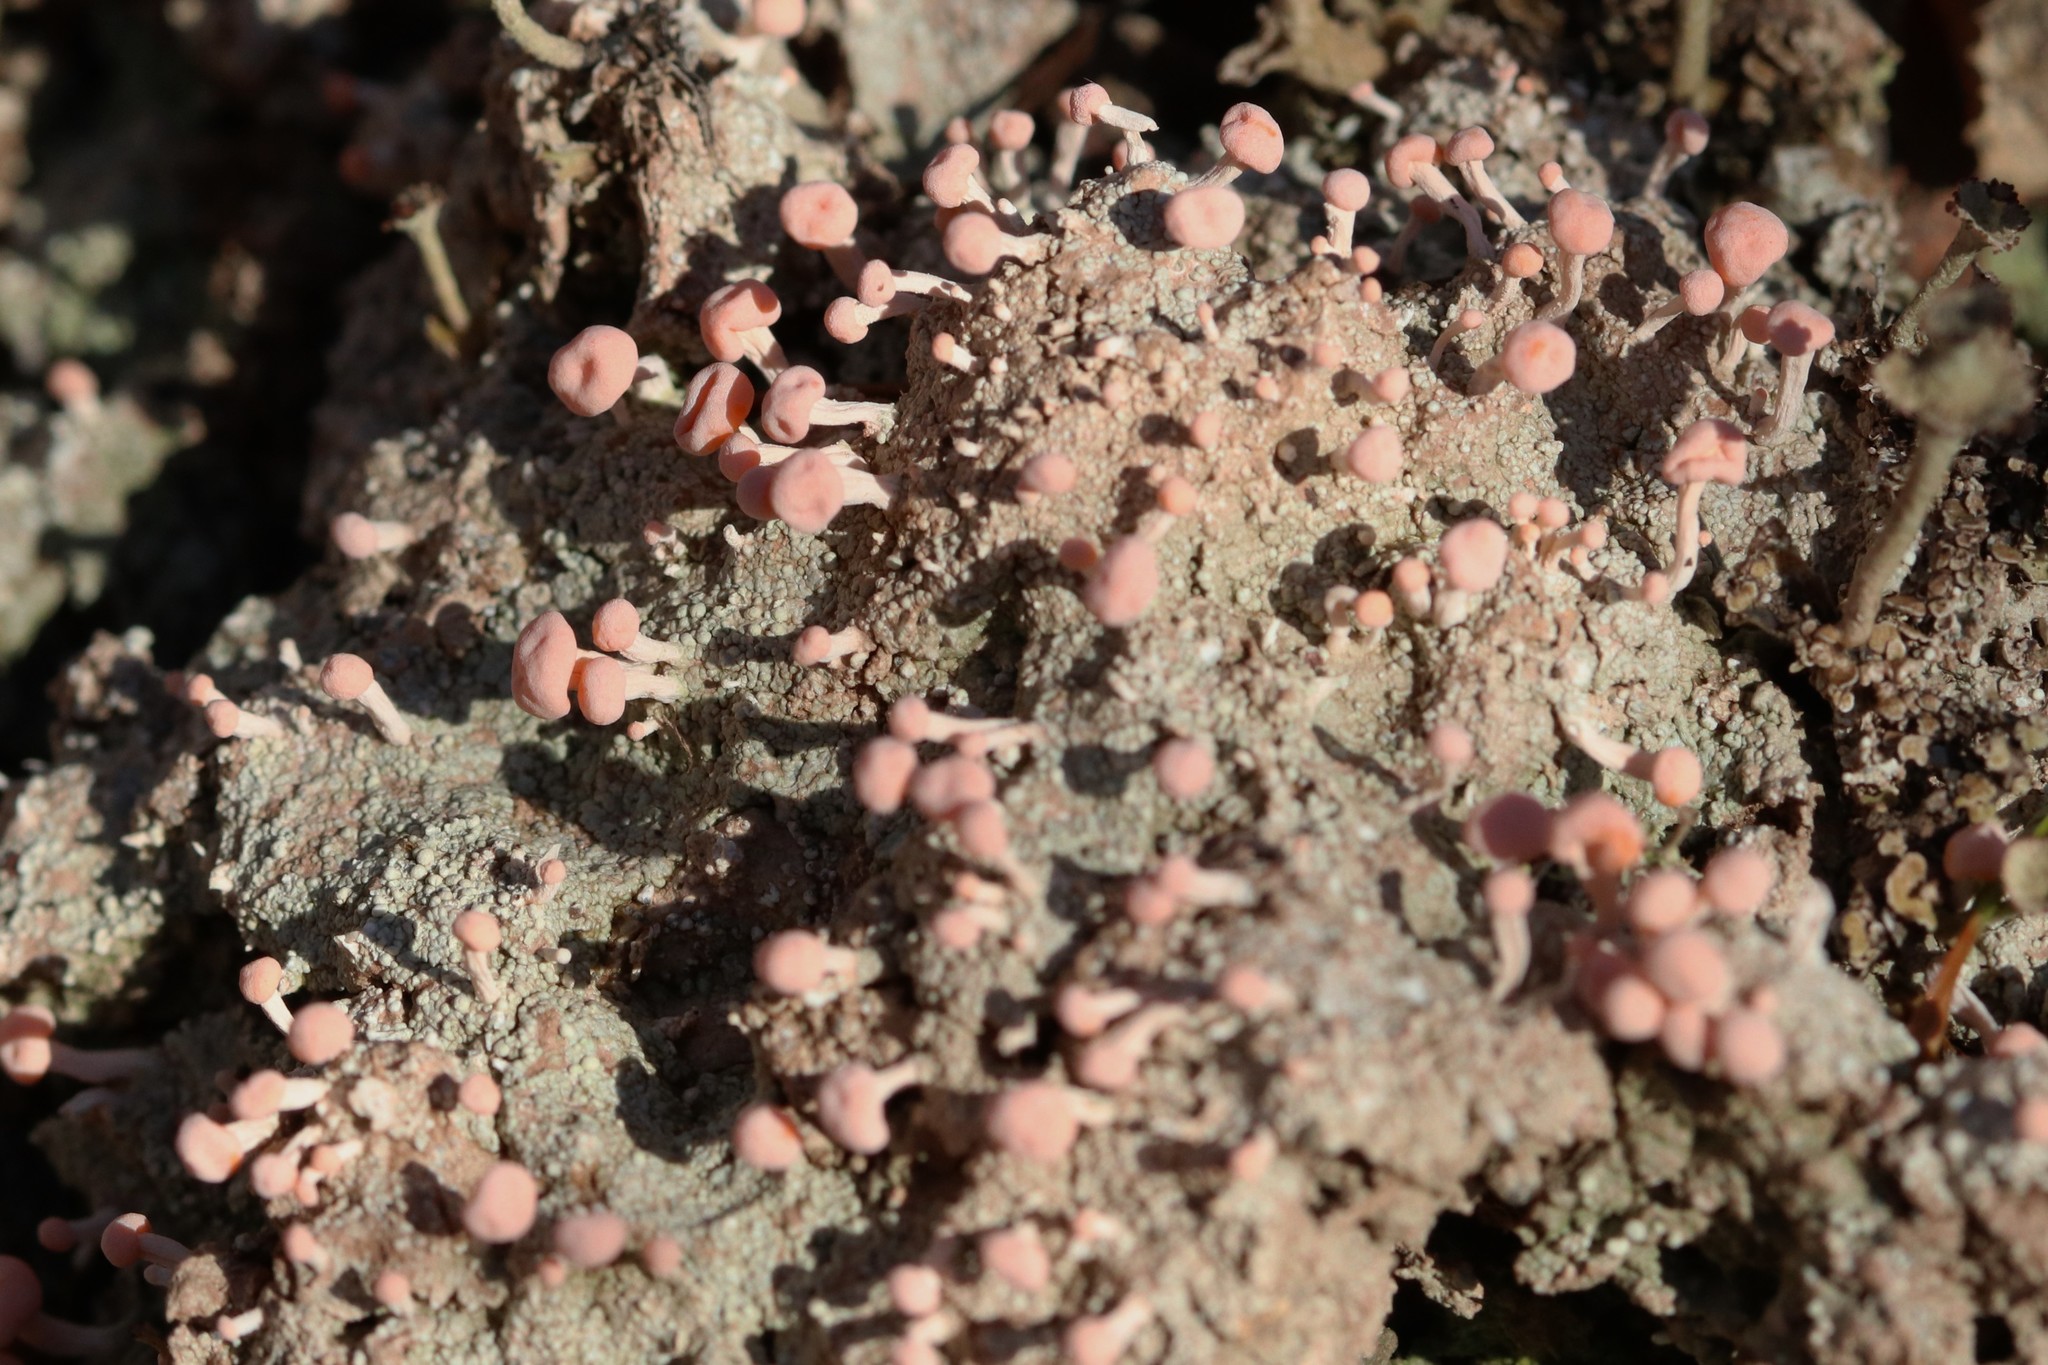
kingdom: Fungi
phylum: Ascomycota
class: Lecanoromycetes
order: Pertusariales
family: Icmadophilaceae
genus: Dibaeis
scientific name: Dibaeis baeomyces
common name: Pink earth lichen
